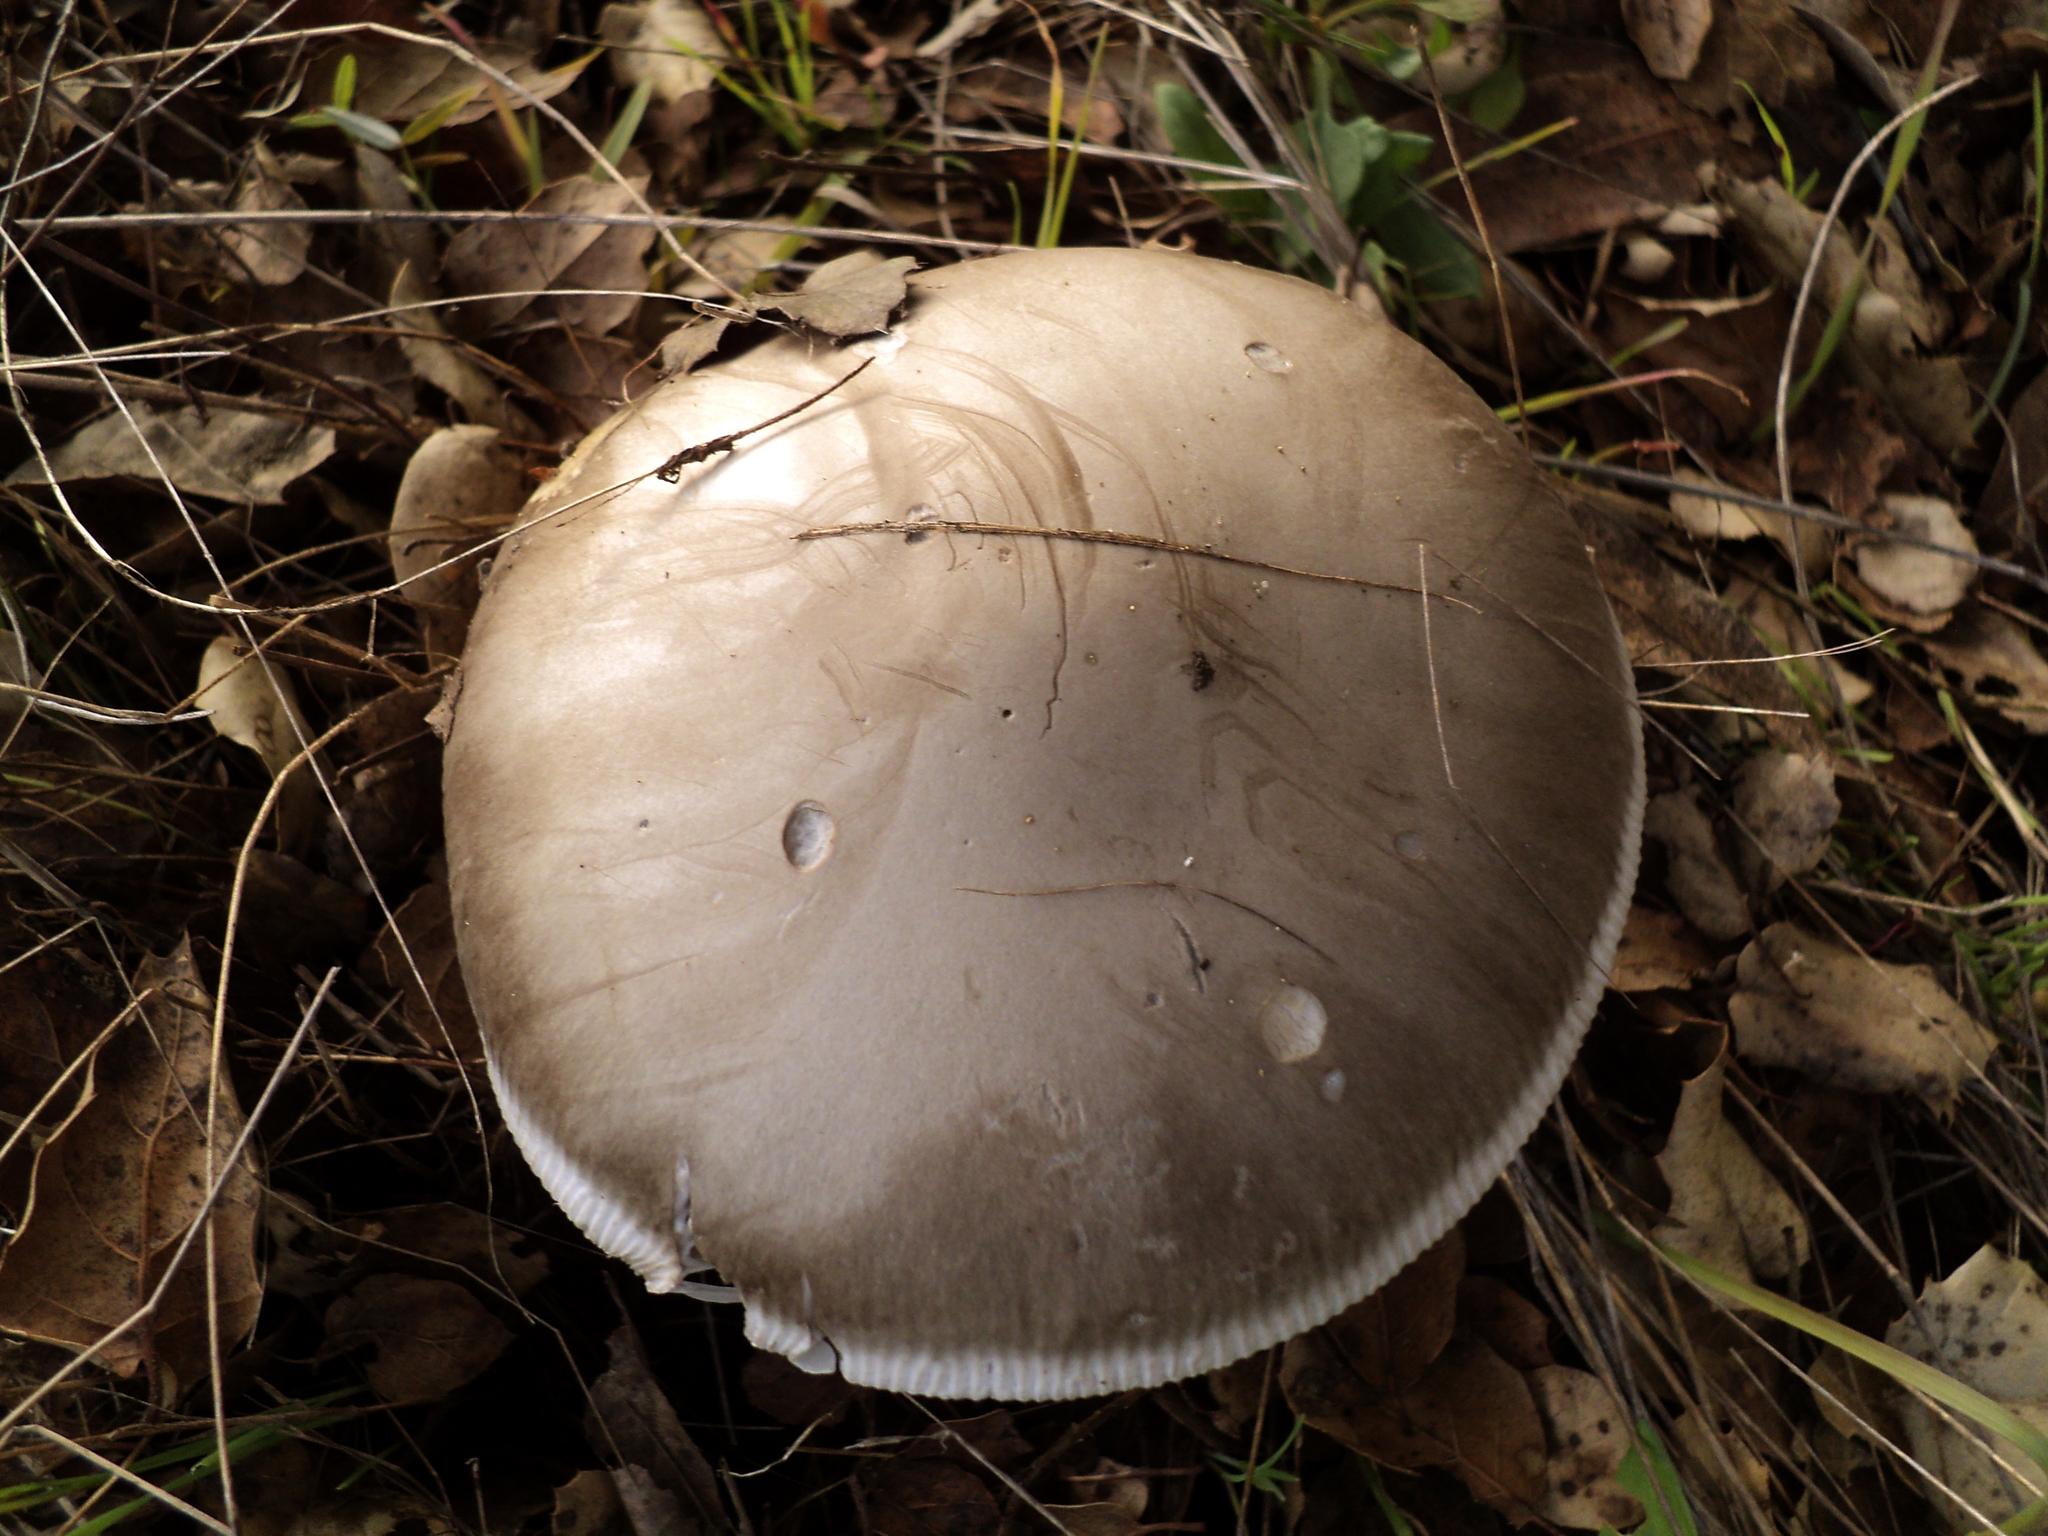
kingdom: Fungi
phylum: Basidiomycota
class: Agaricomycetes
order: Agaricales
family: Amanitaceae
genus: Amanita
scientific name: Amanita constricta
